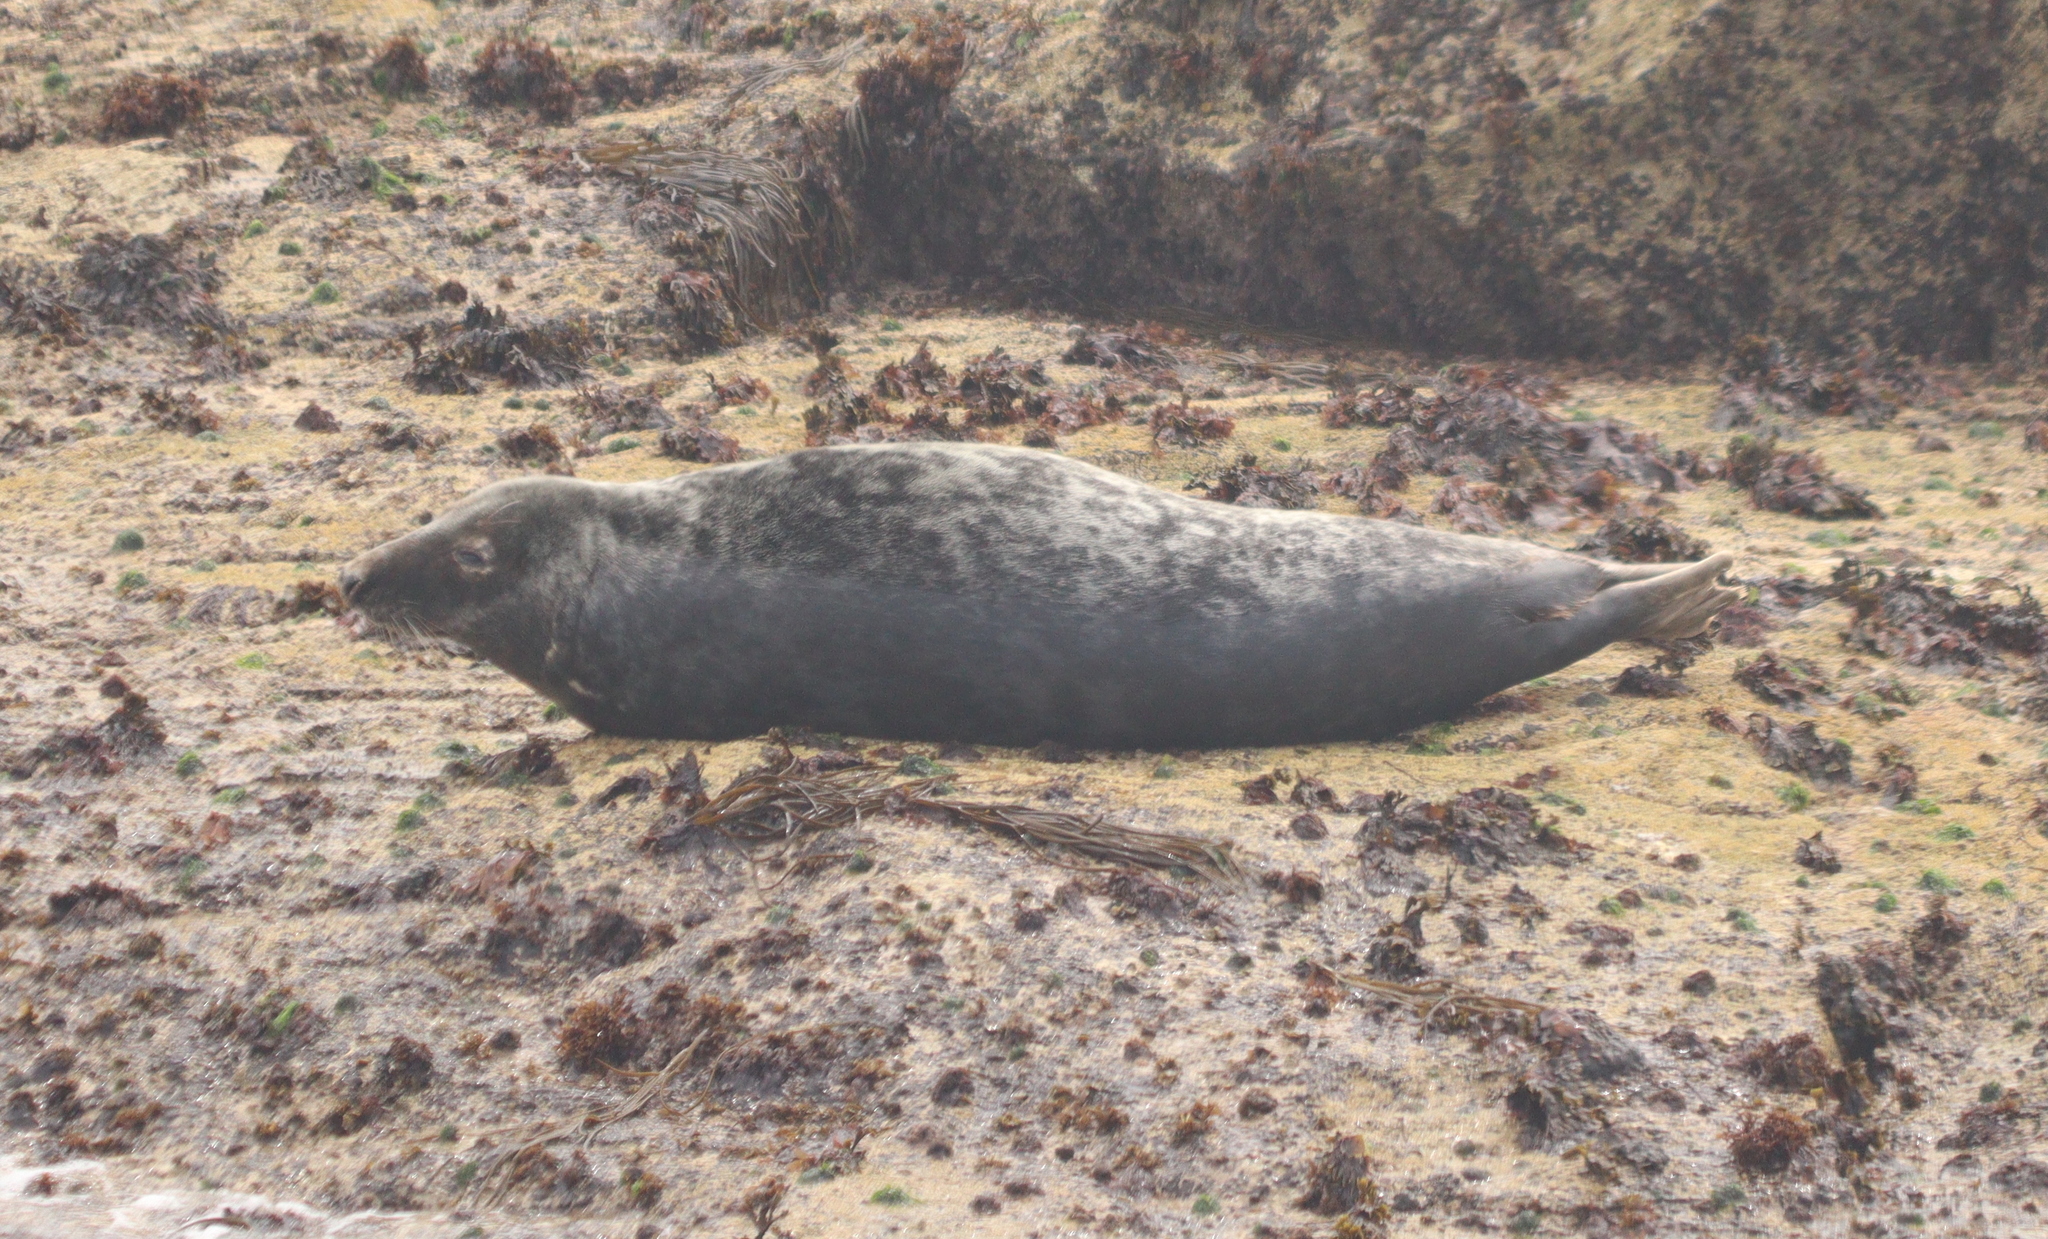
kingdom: Animalia
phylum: Chordata
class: Mammalia
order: Carnivora
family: Phocidae
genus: Halichoerus
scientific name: Halichoerus grypus
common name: Grey seal
